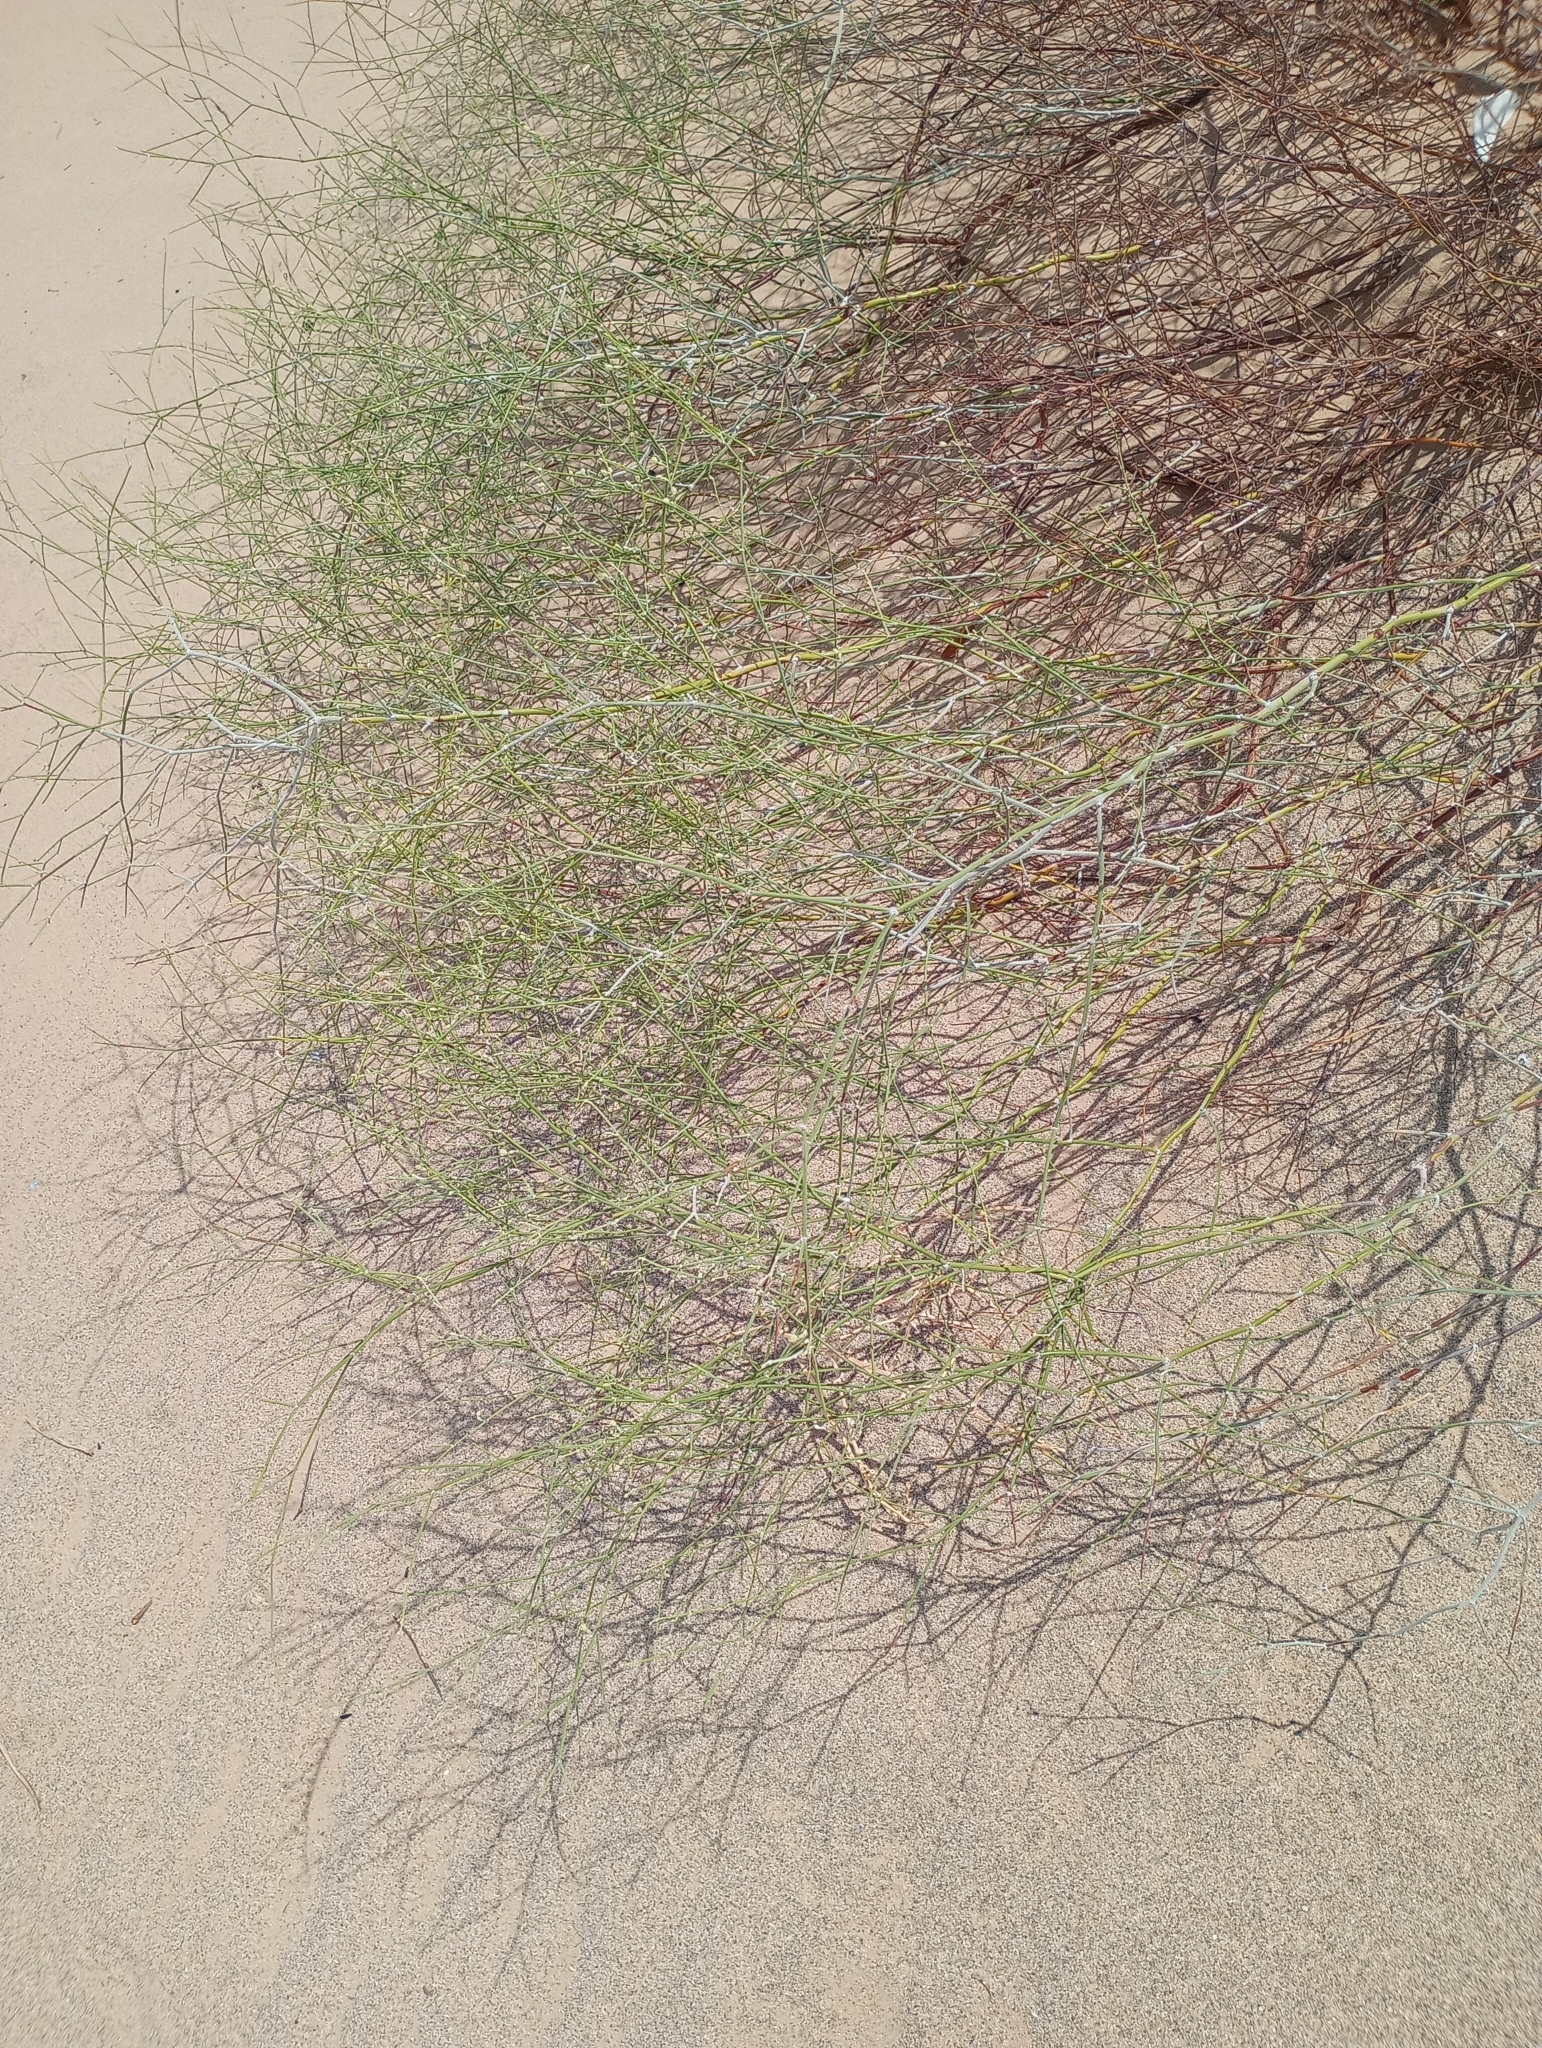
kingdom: Plantae
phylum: Tracheophyta
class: Magnoliopsida
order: Caryophyllales
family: Polygonaceae
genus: Eriogonum
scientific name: Eriogonum deserticola
